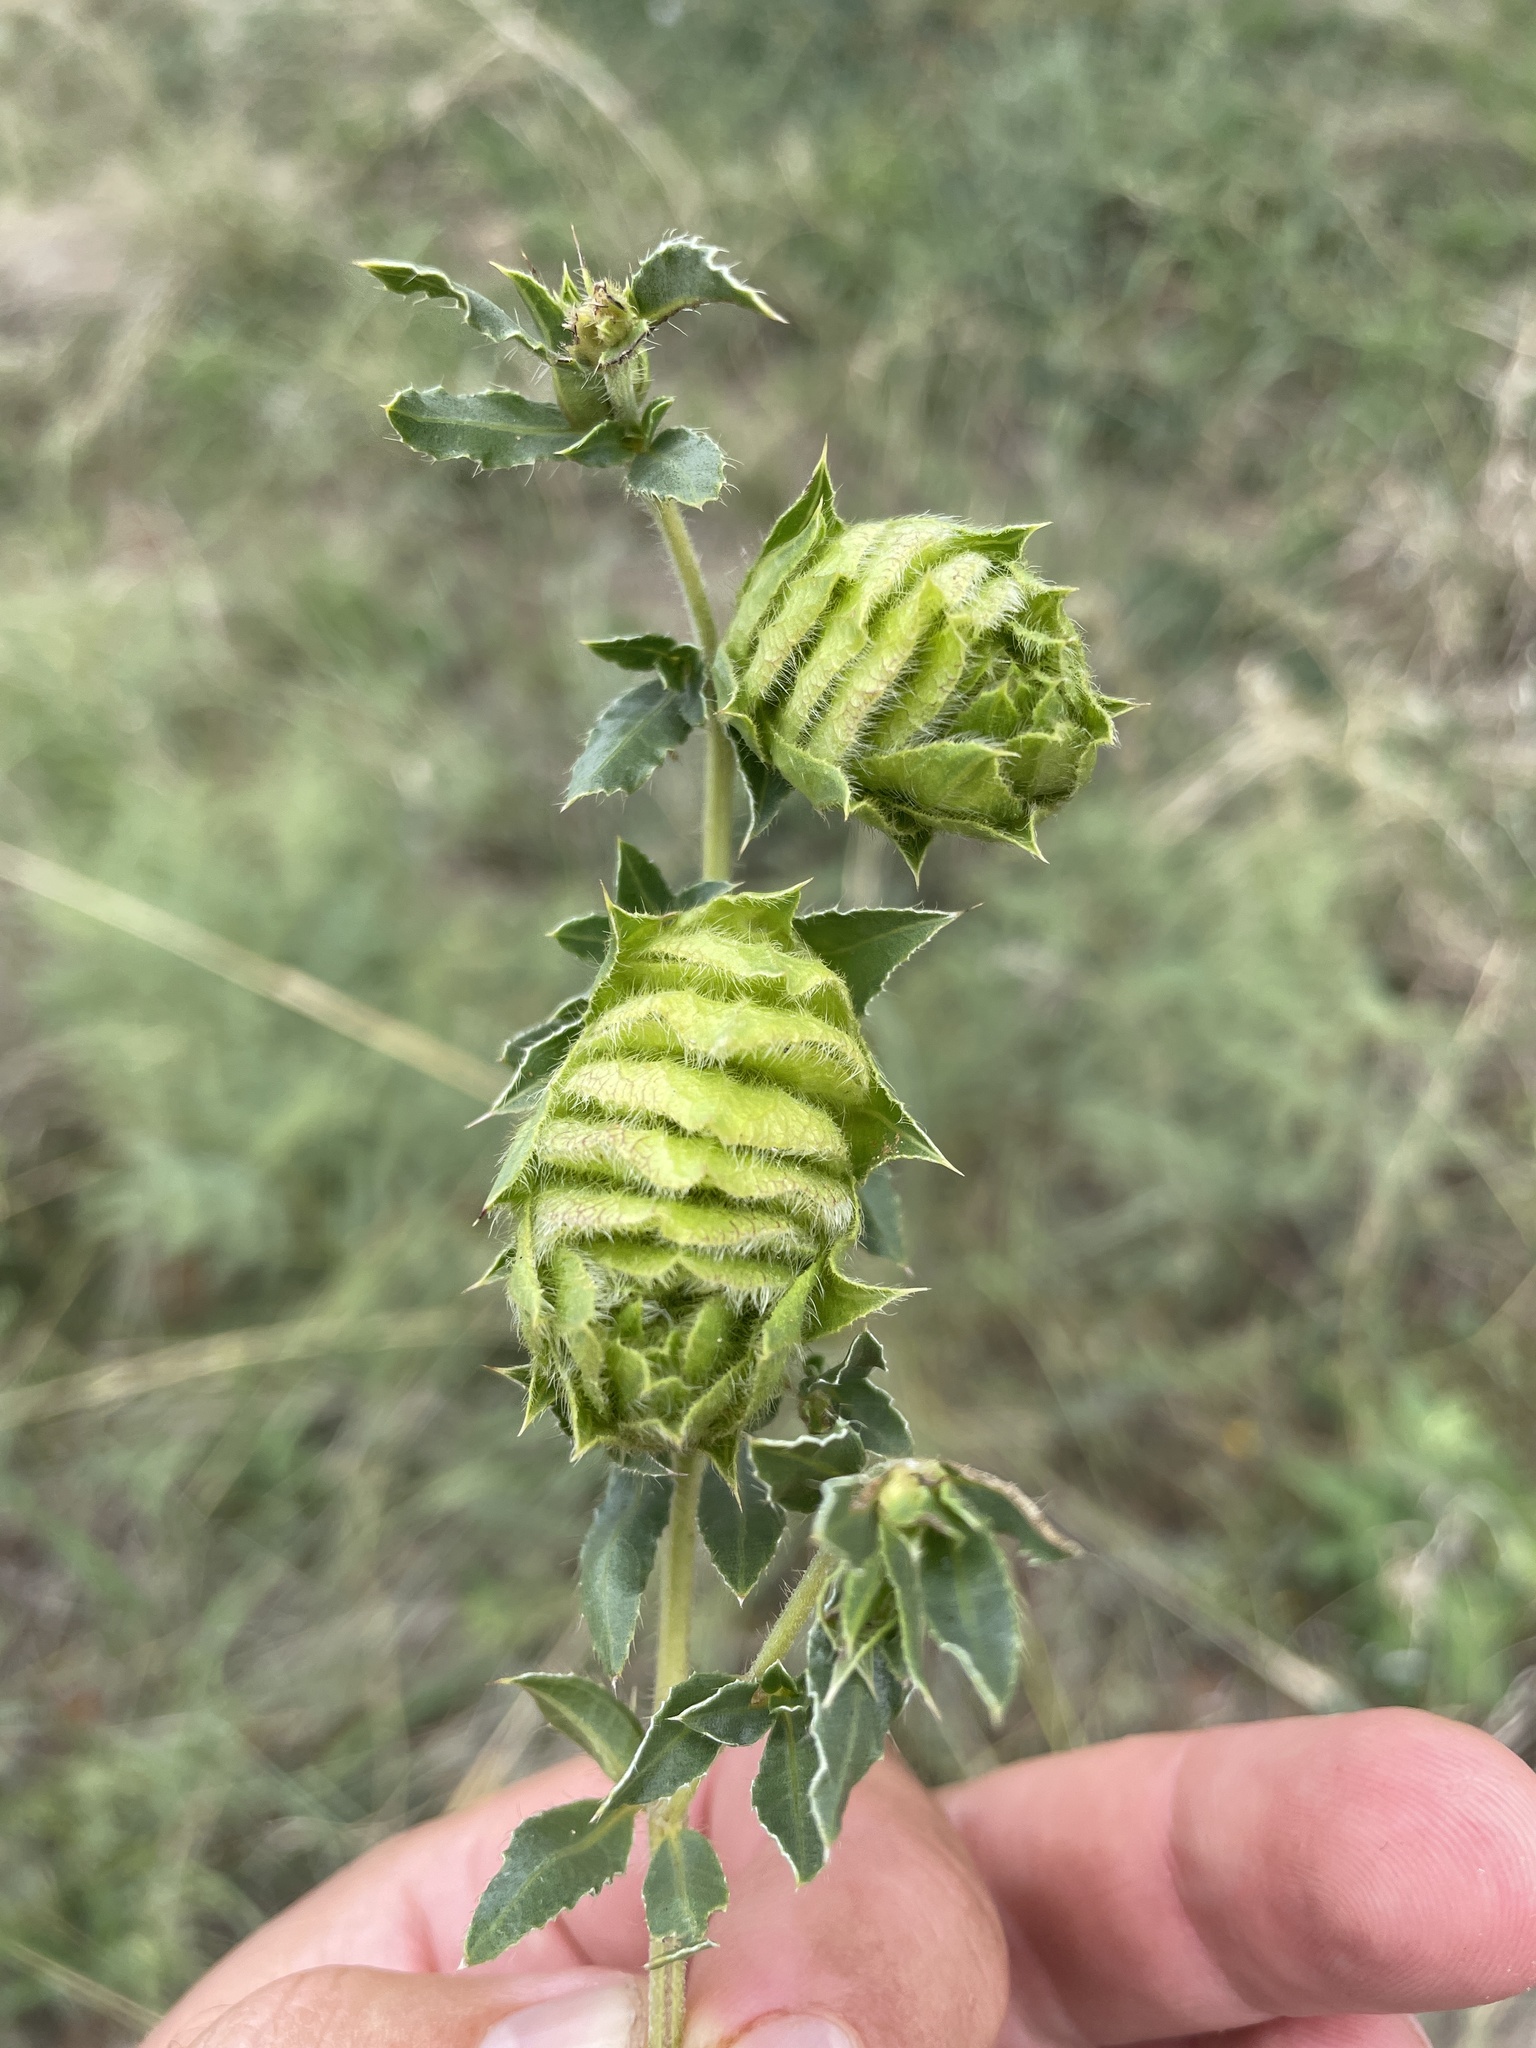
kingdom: Plantae
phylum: Tracheophyta
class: Magnoliopsida
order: Lamiales
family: Acanthaceae
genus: Barleria
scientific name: Barleria macrostegia
